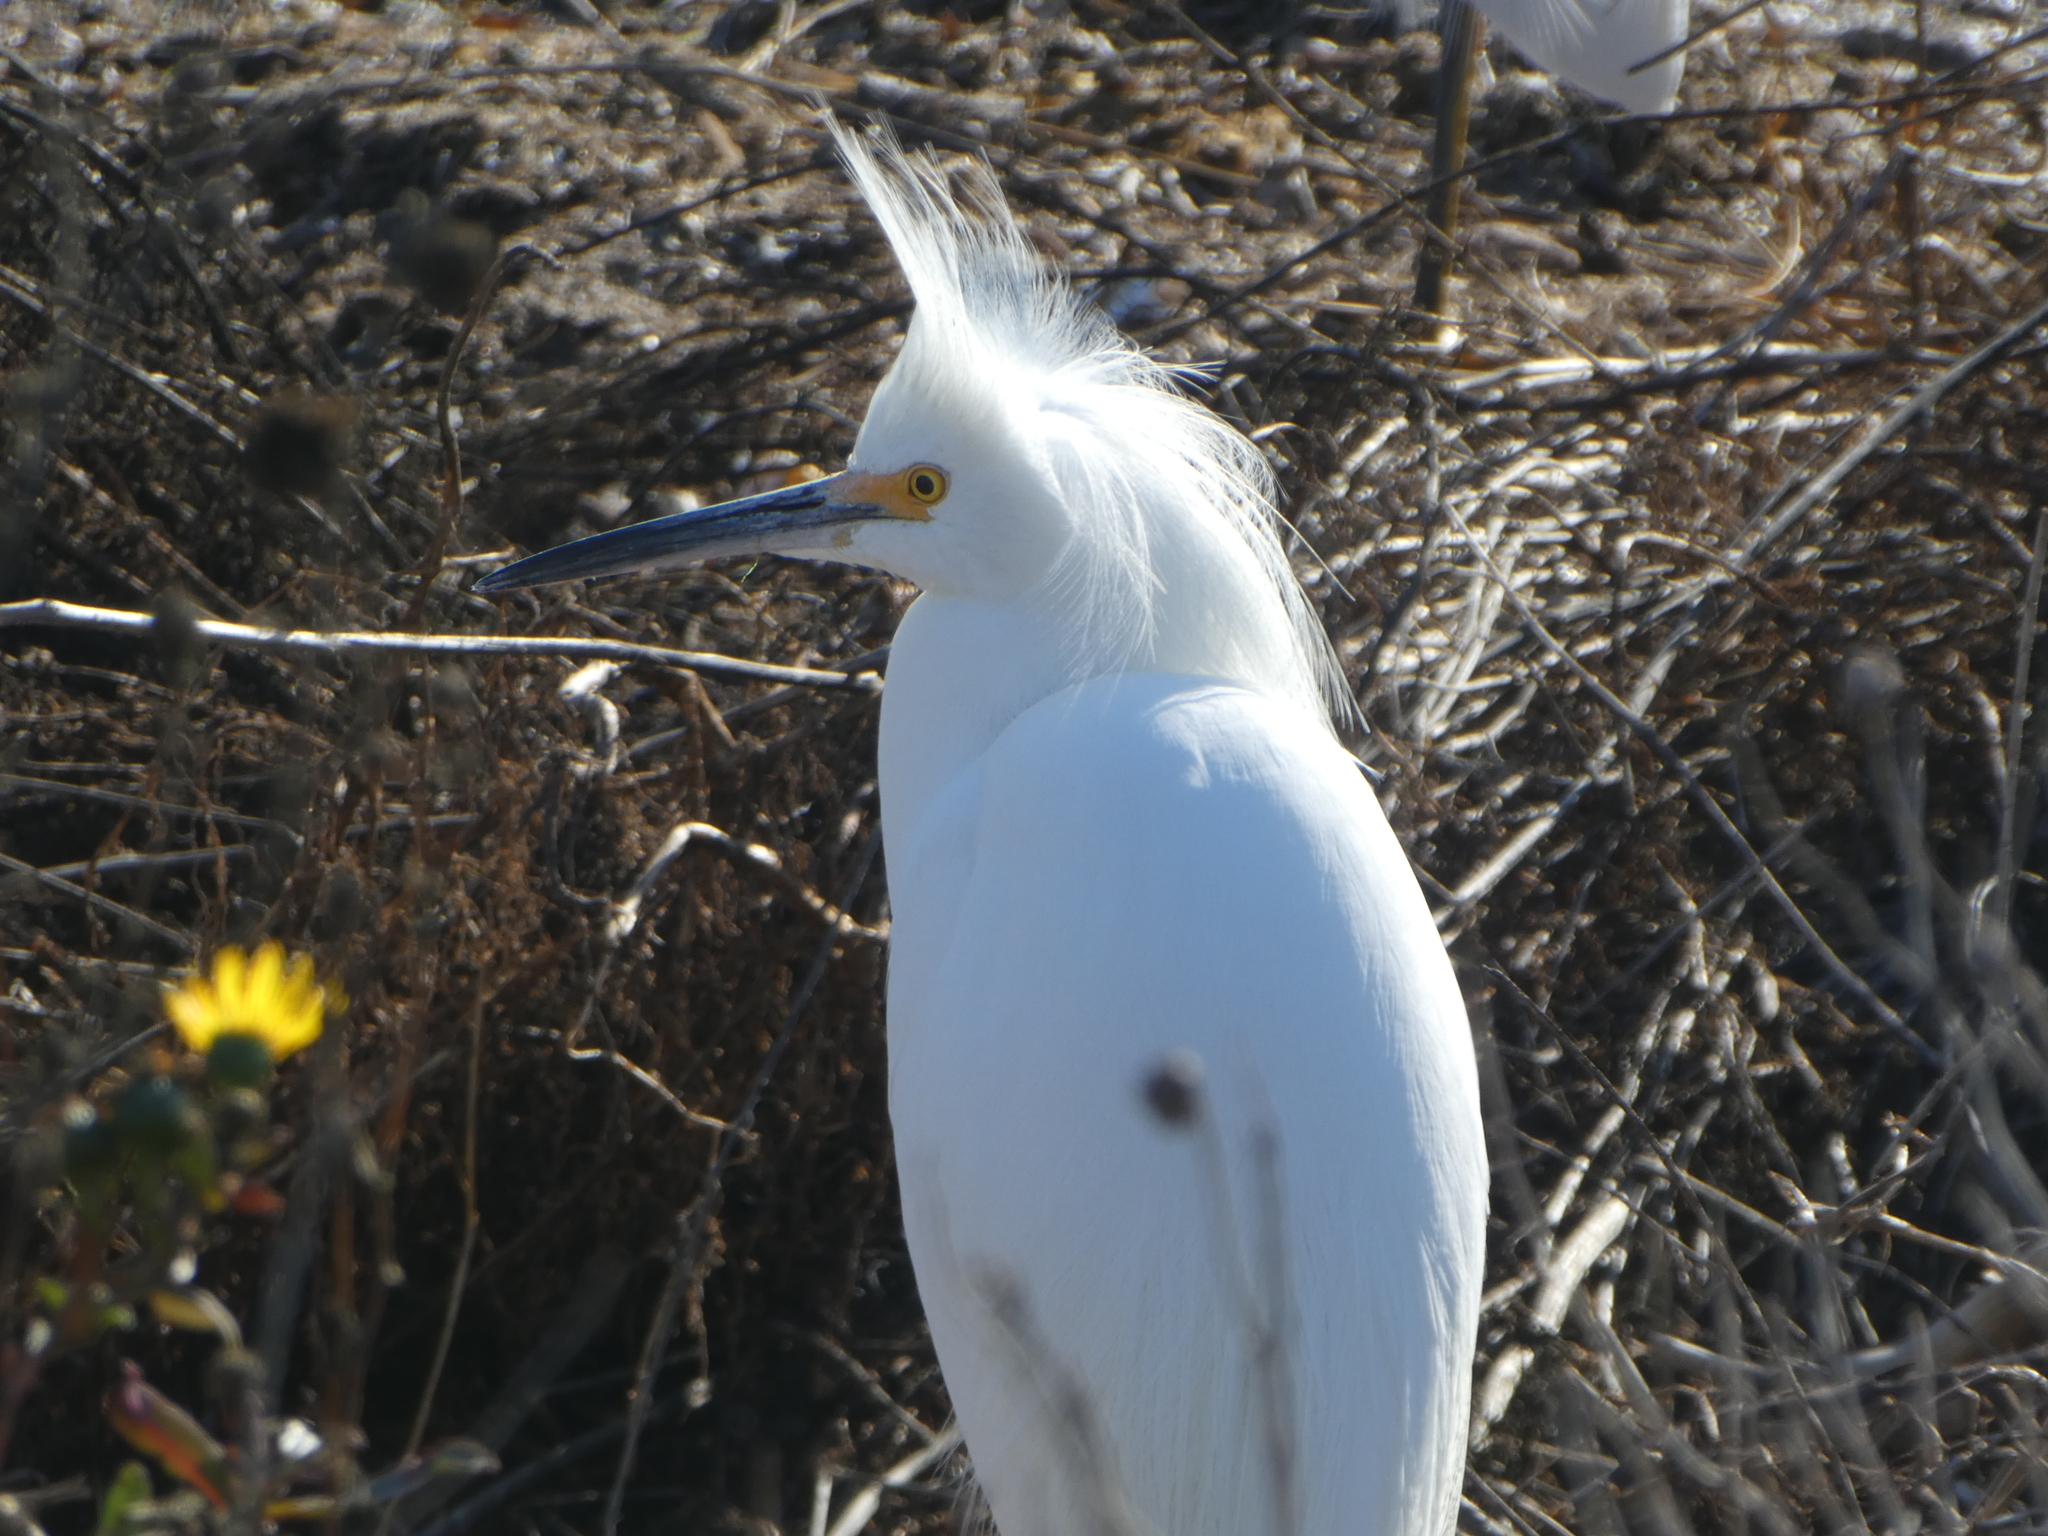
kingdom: Animalia
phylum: Chordata
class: Aves
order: Pelecaniformes
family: Ardeidae
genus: Egretta
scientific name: Egretta thula
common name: Snowy egret
